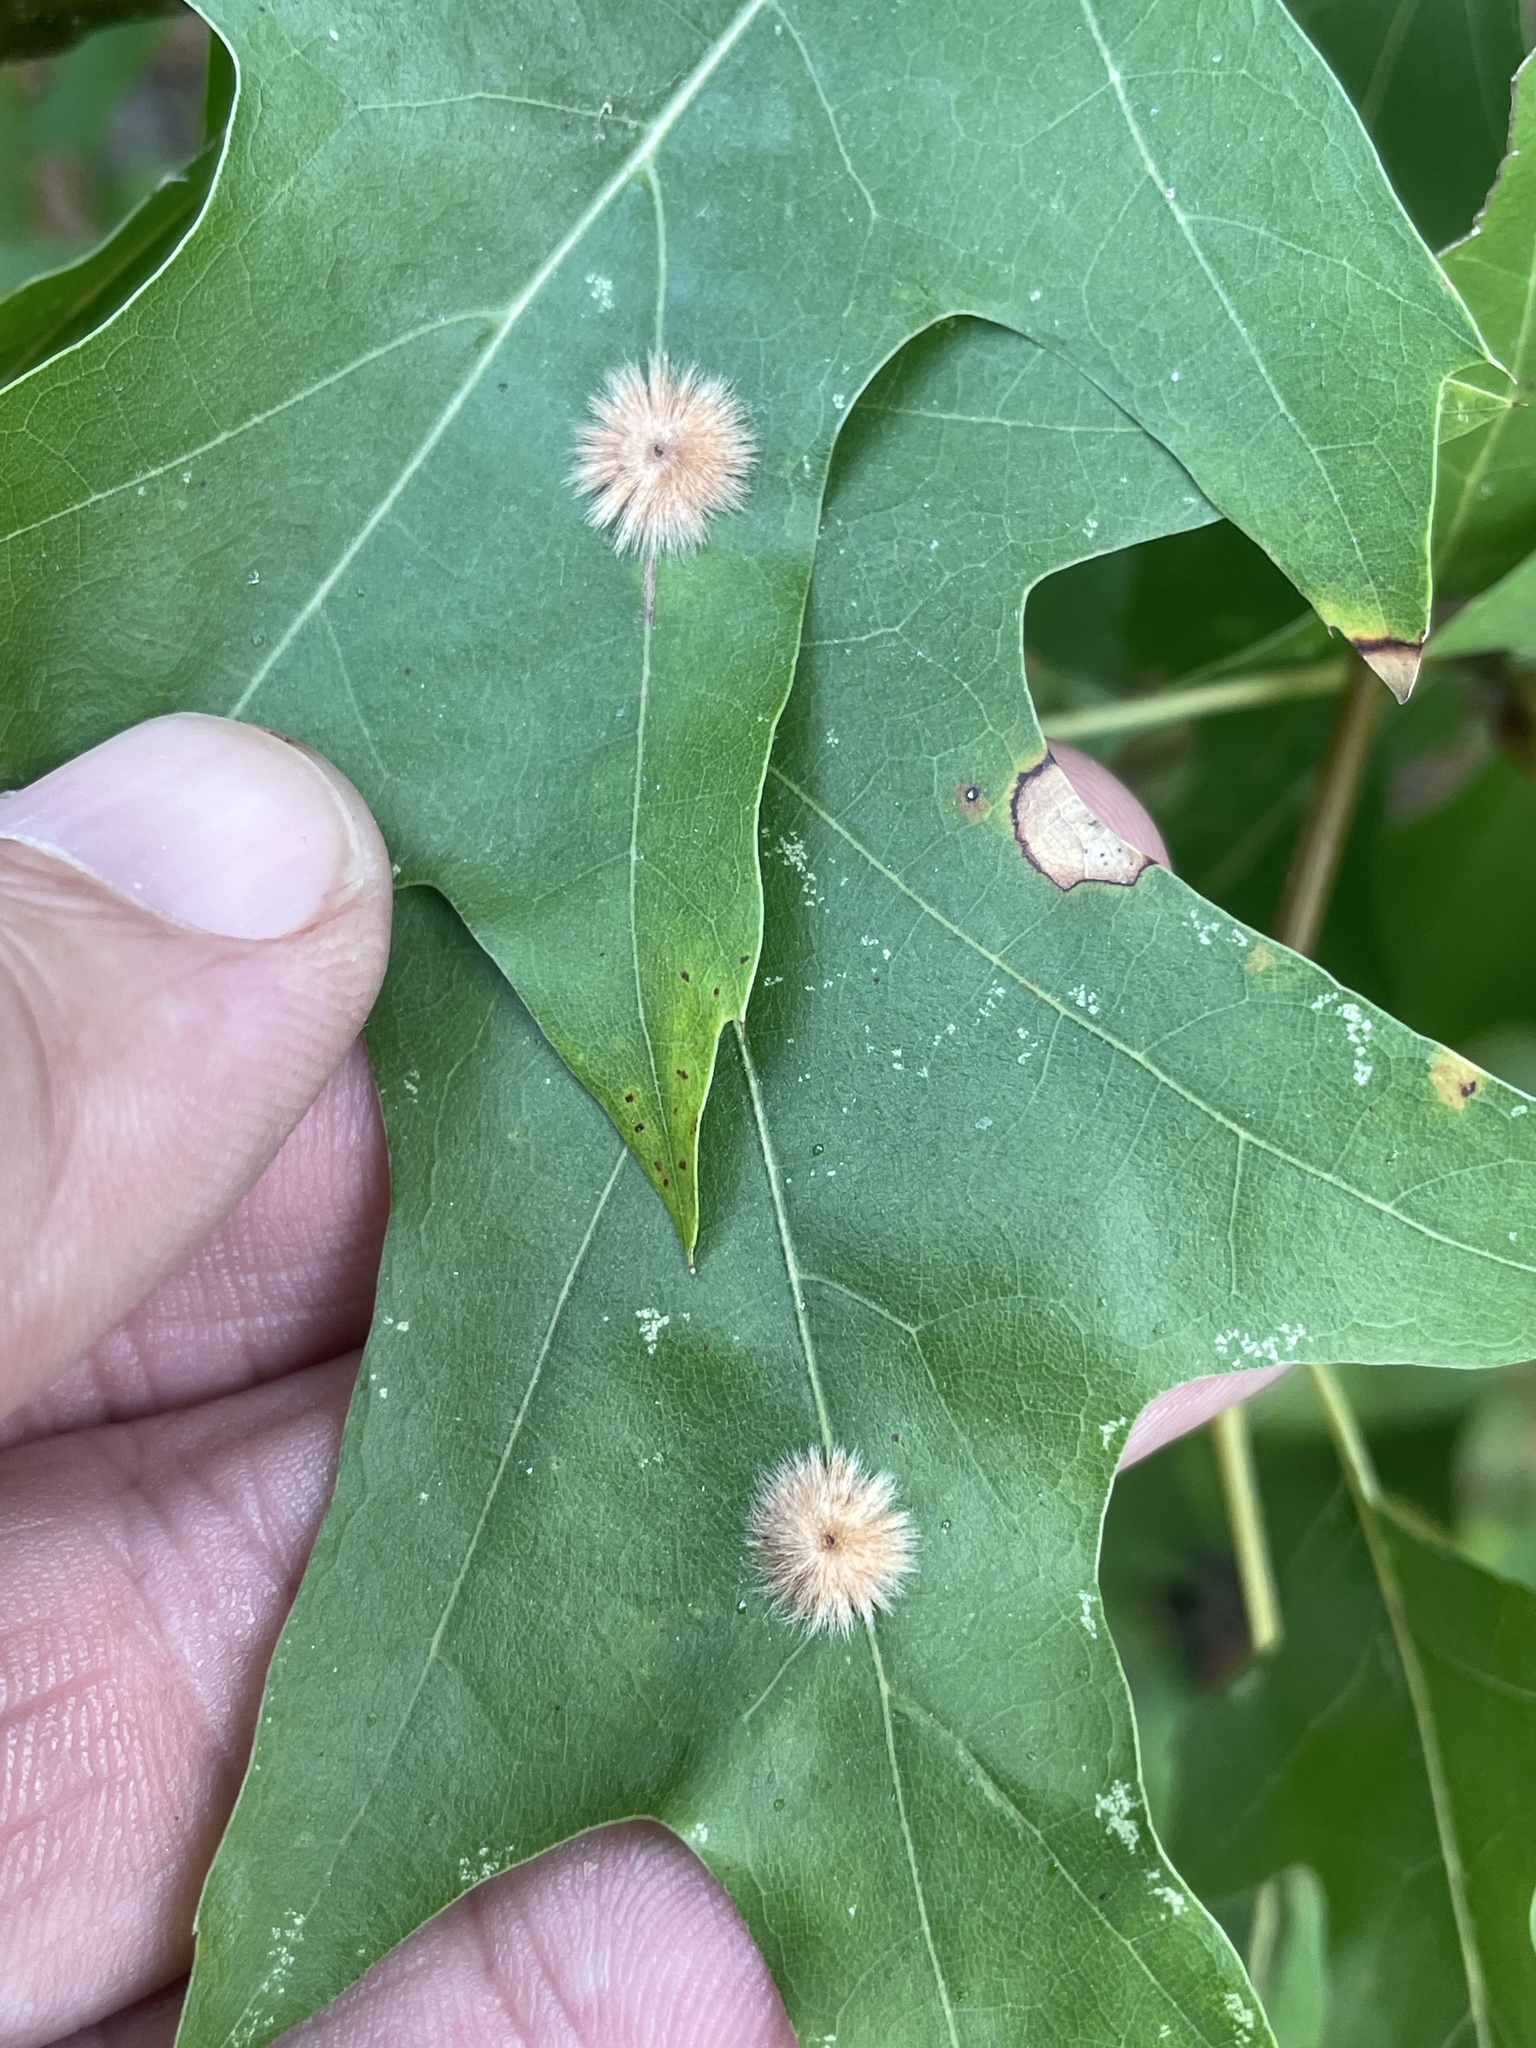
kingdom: Animalia
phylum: Arthropoda
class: Insecta
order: Hymenoptera
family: Cynipidae
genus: Callirhytis
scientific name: Callirhytis
